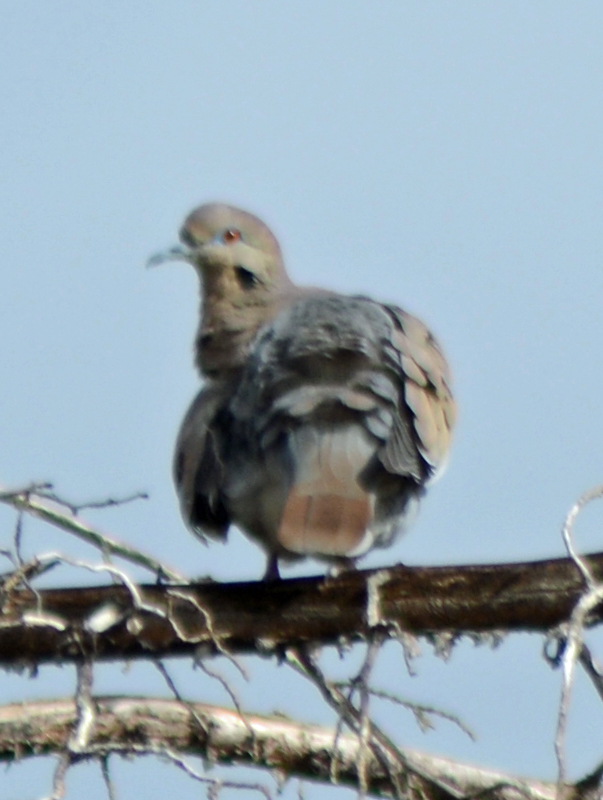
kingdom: Animalia
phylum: Chordata
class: Aves
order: Columbiformes
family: Columbidae
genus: Zenaida
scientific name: Zenaida asiatica
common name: White-winged dove
